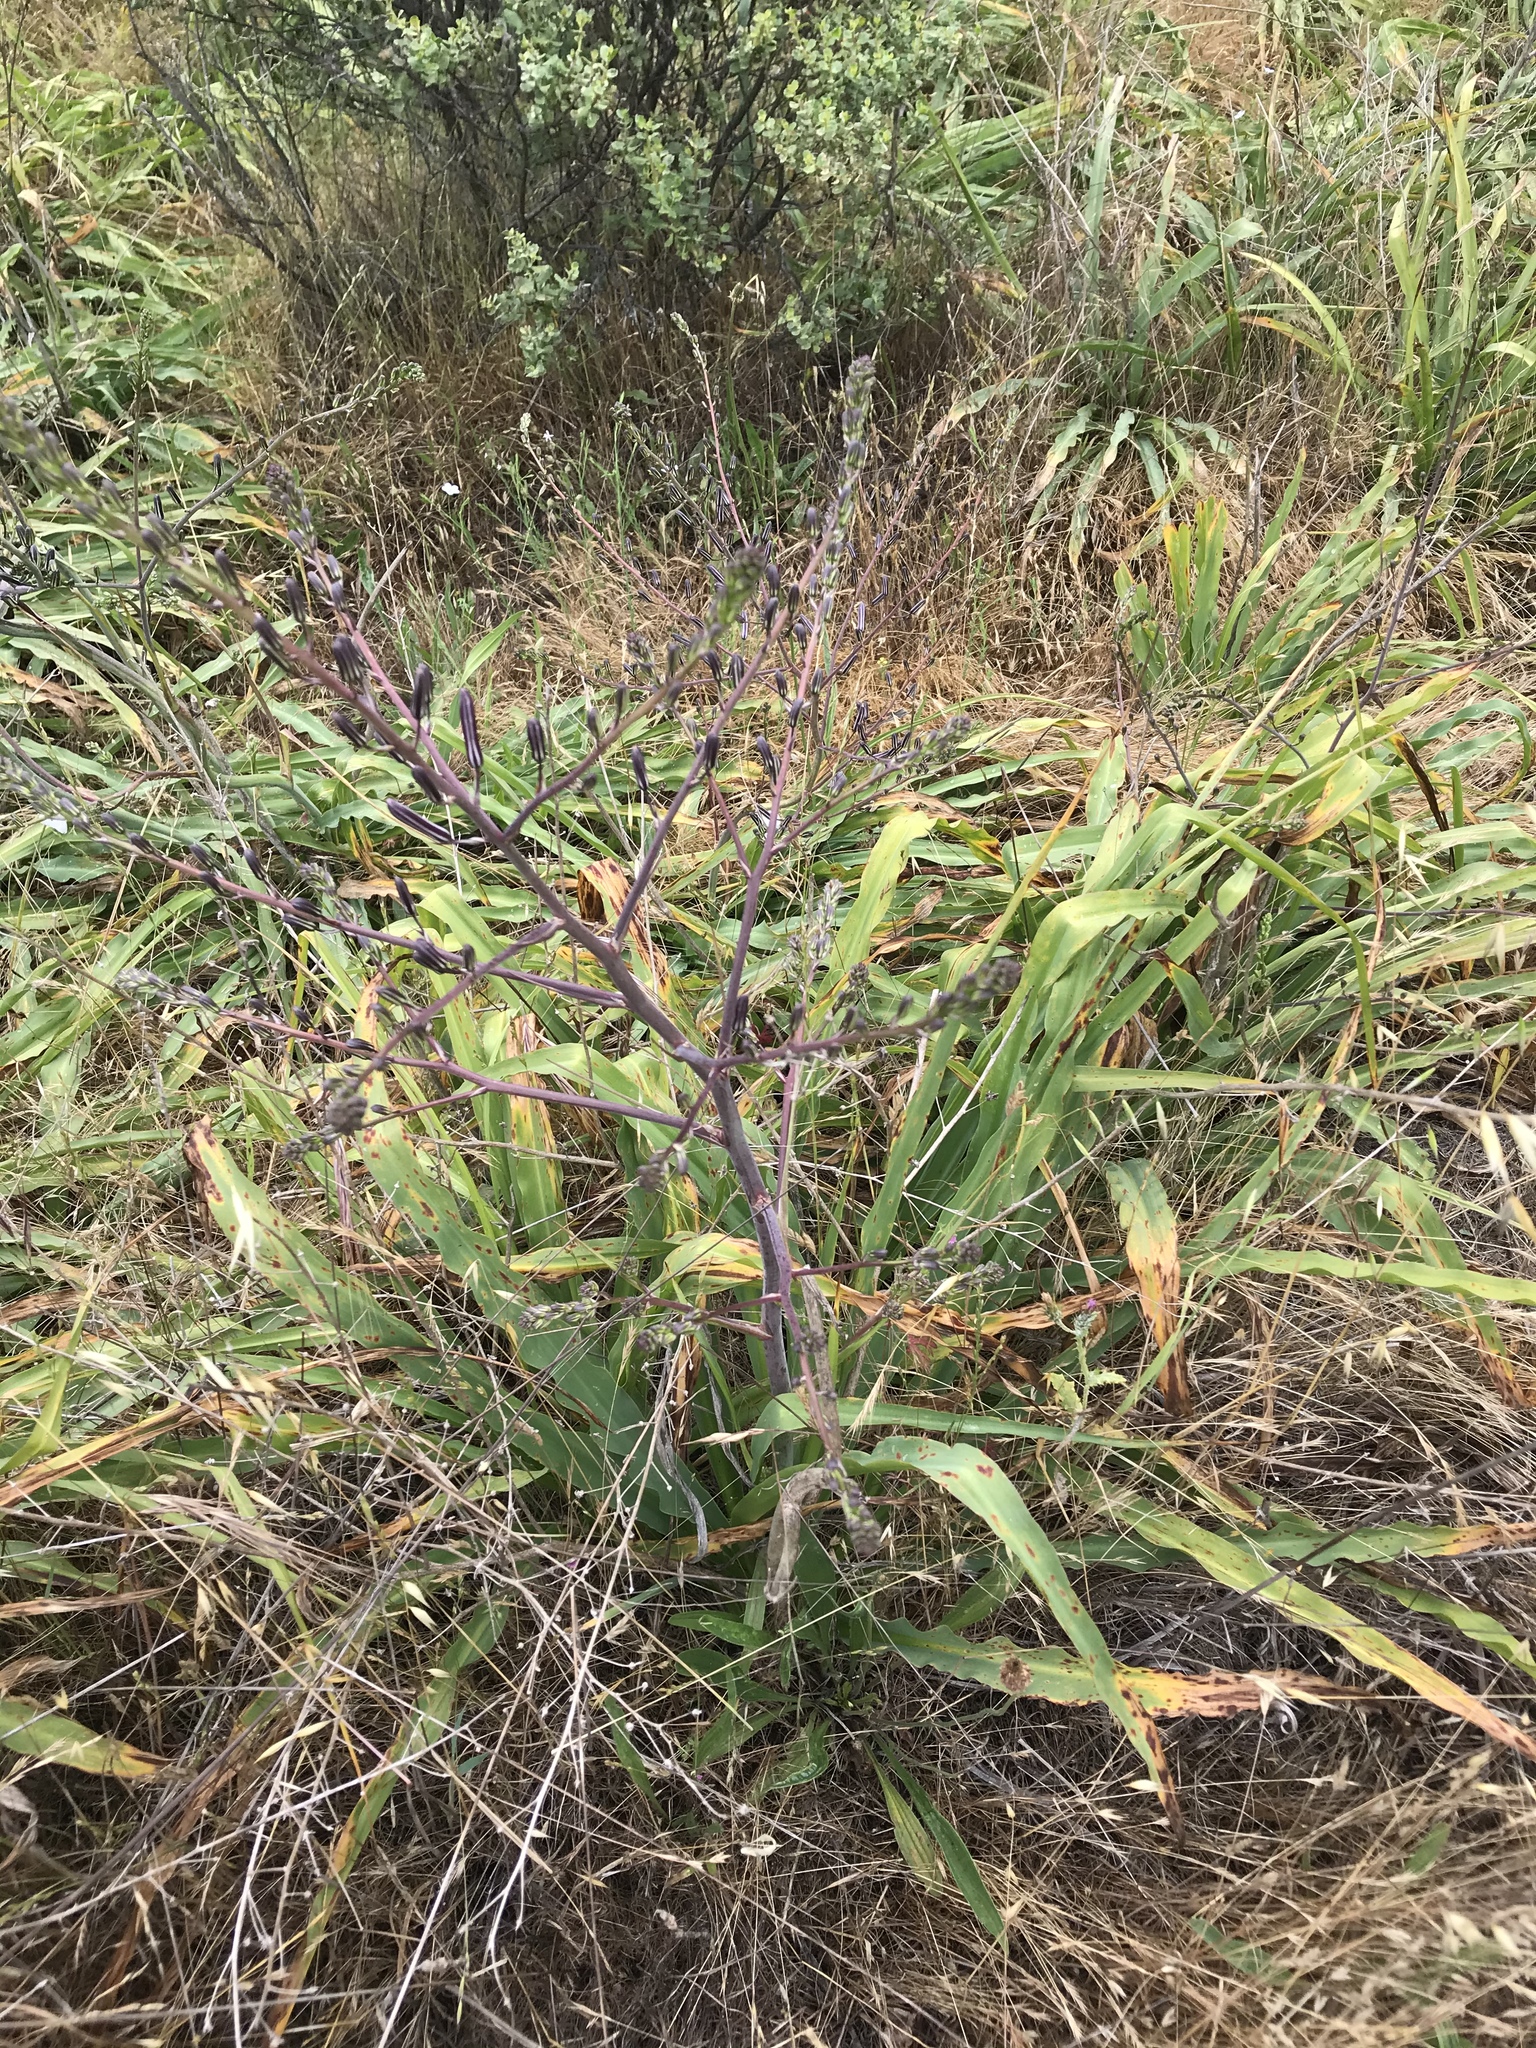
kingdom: Plantae
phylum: Tracheophyta
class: Liliopsida
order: Asparagales
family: Asparagaceae
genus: Chlorogalum
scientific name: Chlorogalum pomeridianum
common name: Amole
